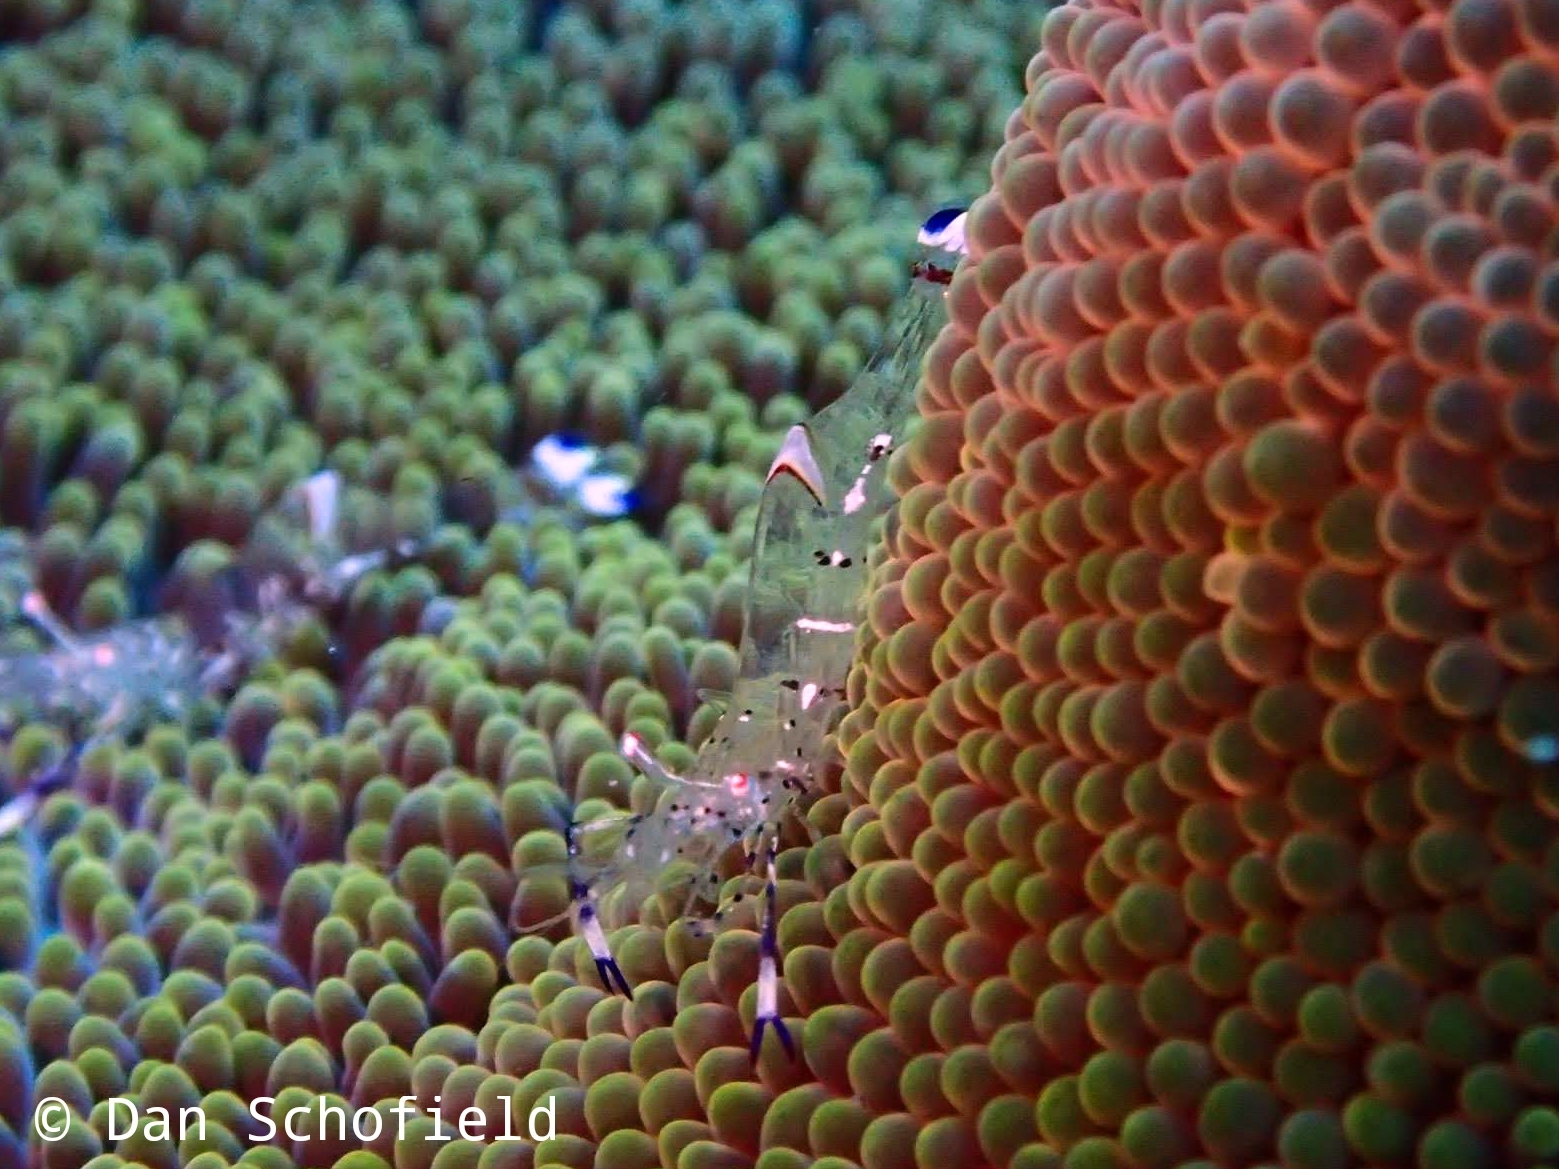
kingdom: Animalia
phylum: Arthropoda
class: Malacostraca
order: Decapoda
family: Palaemonidae
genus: Ancylomenes
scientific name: Ancylomenes holthuisi
